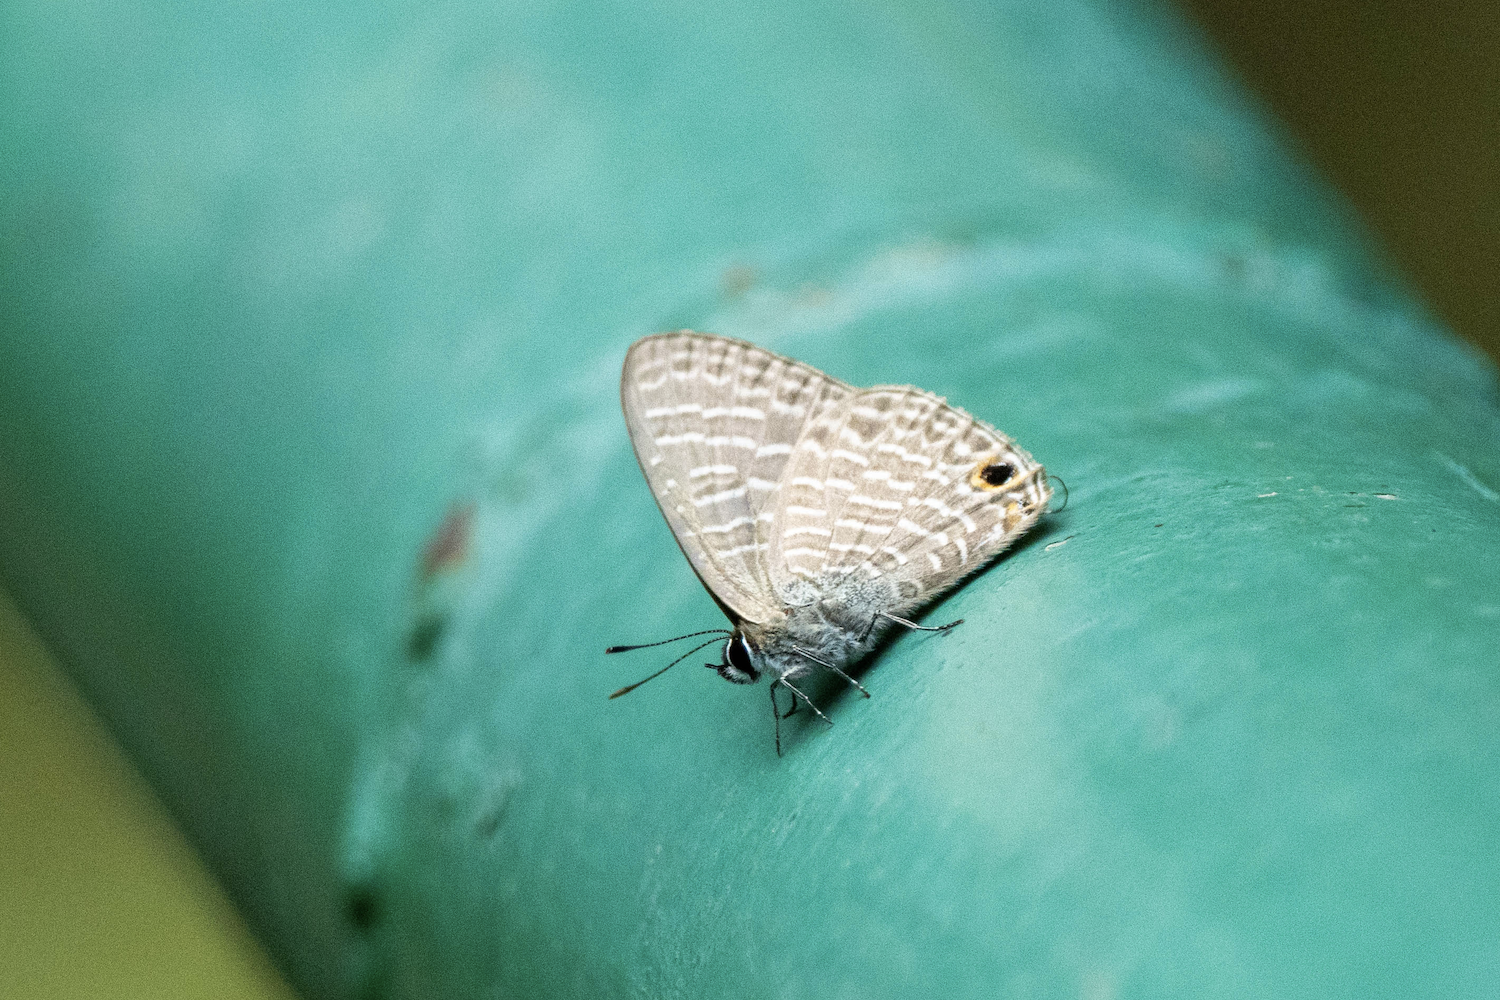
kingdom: Animalia
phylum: Arthropoda
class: Insecta
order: Lepidoptera
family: Lycaenidae
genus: Nacaduba
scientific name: Nacaduba kurava
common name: Transparent 6-line blue
